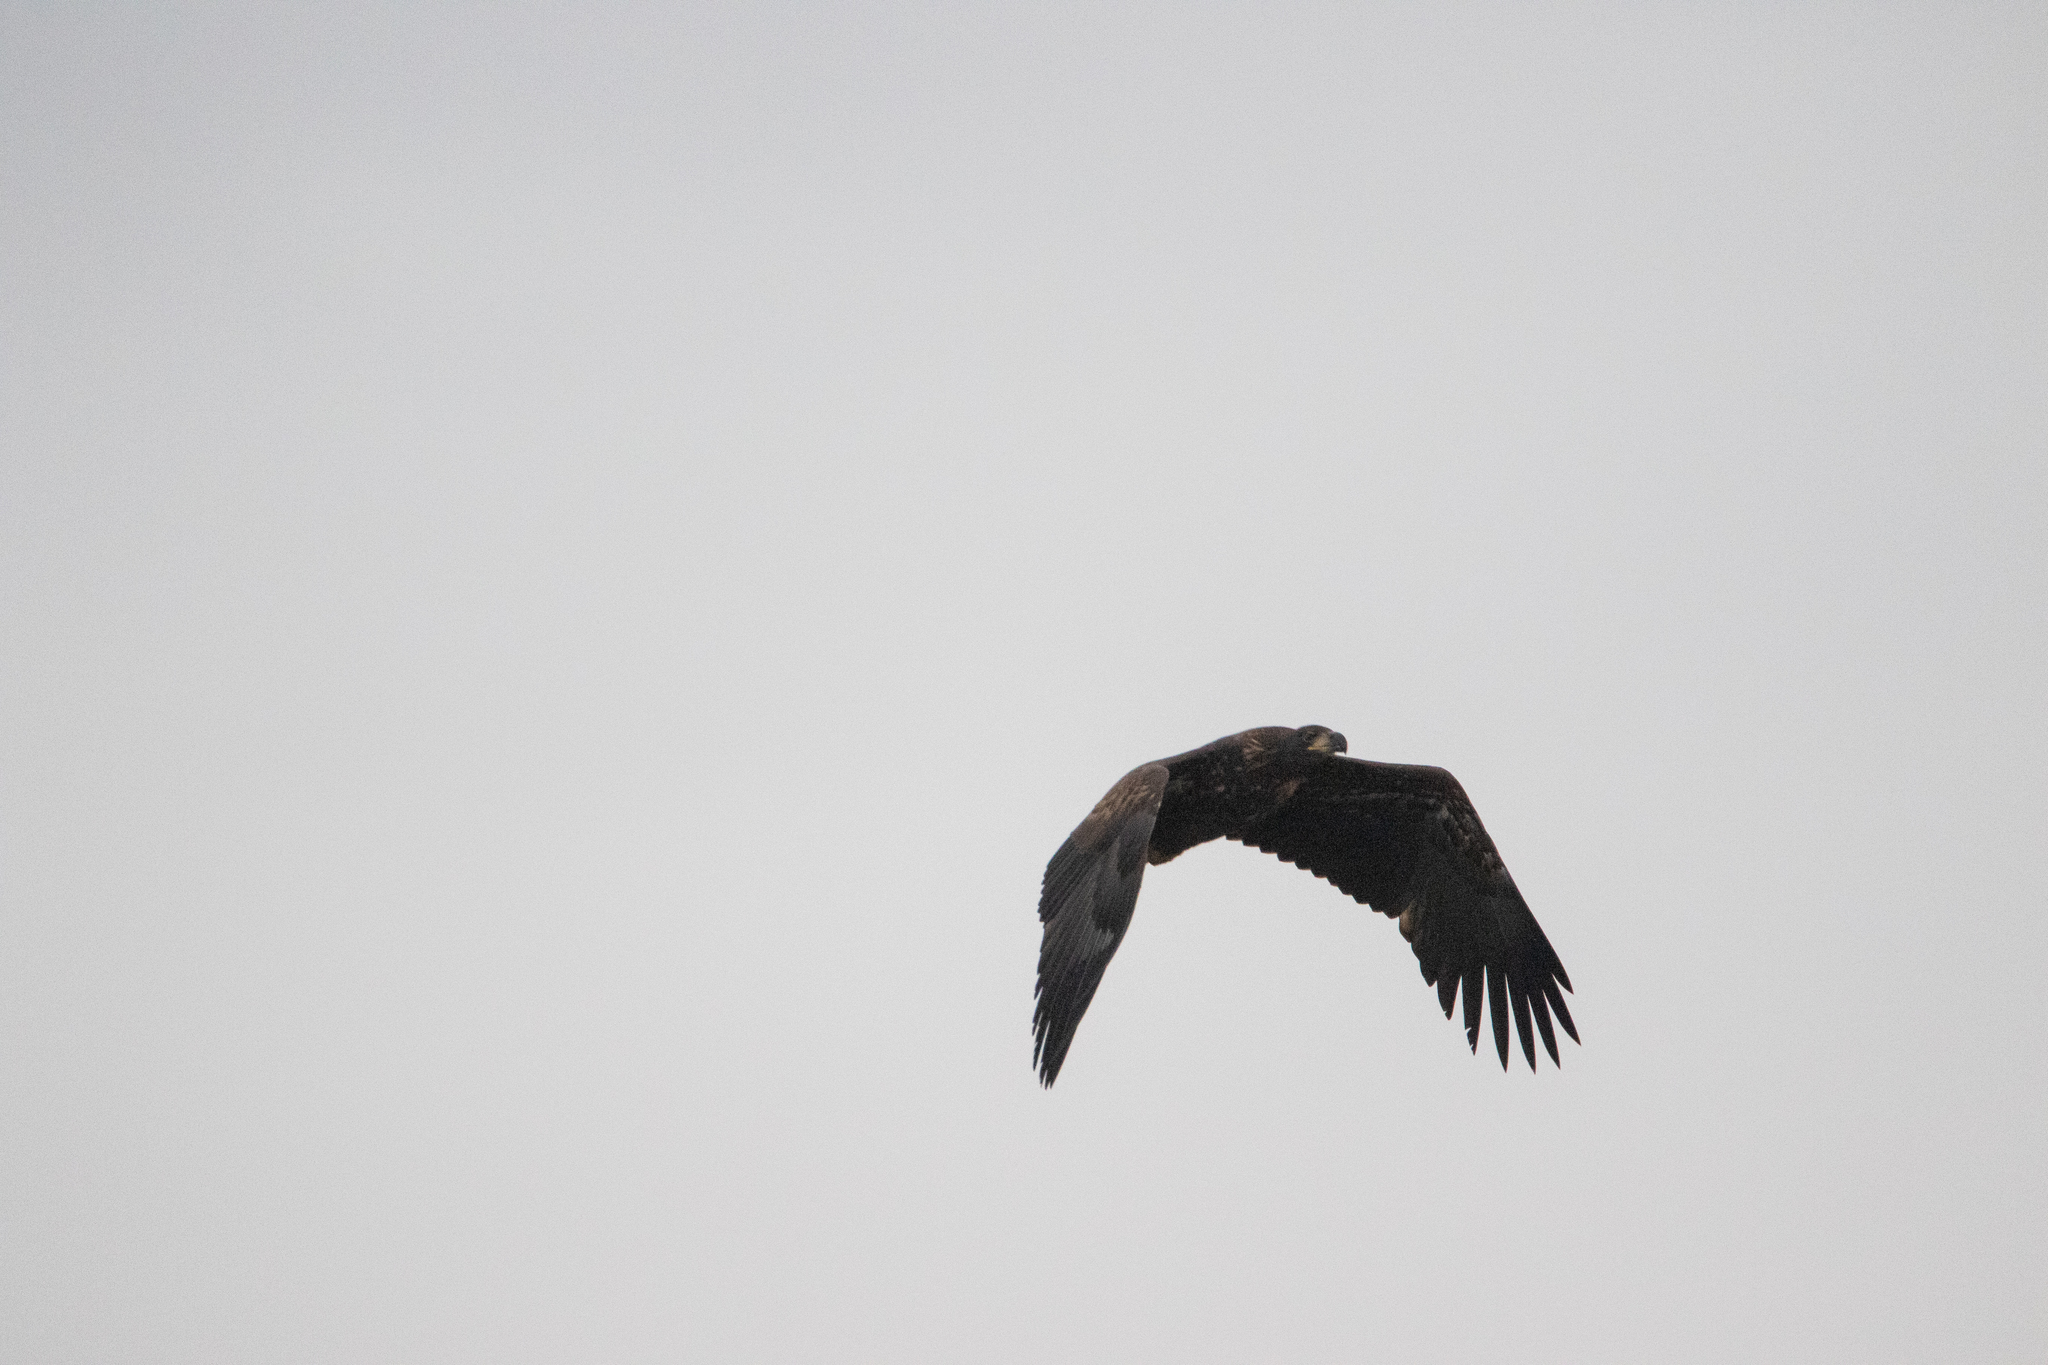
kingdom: Animalia
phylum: Chordata
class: Aves
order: Accipitriformes
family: Accipitridae
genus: Haliaeetus
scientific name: Haliaeetus albicilla
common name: White-tailed eagle
